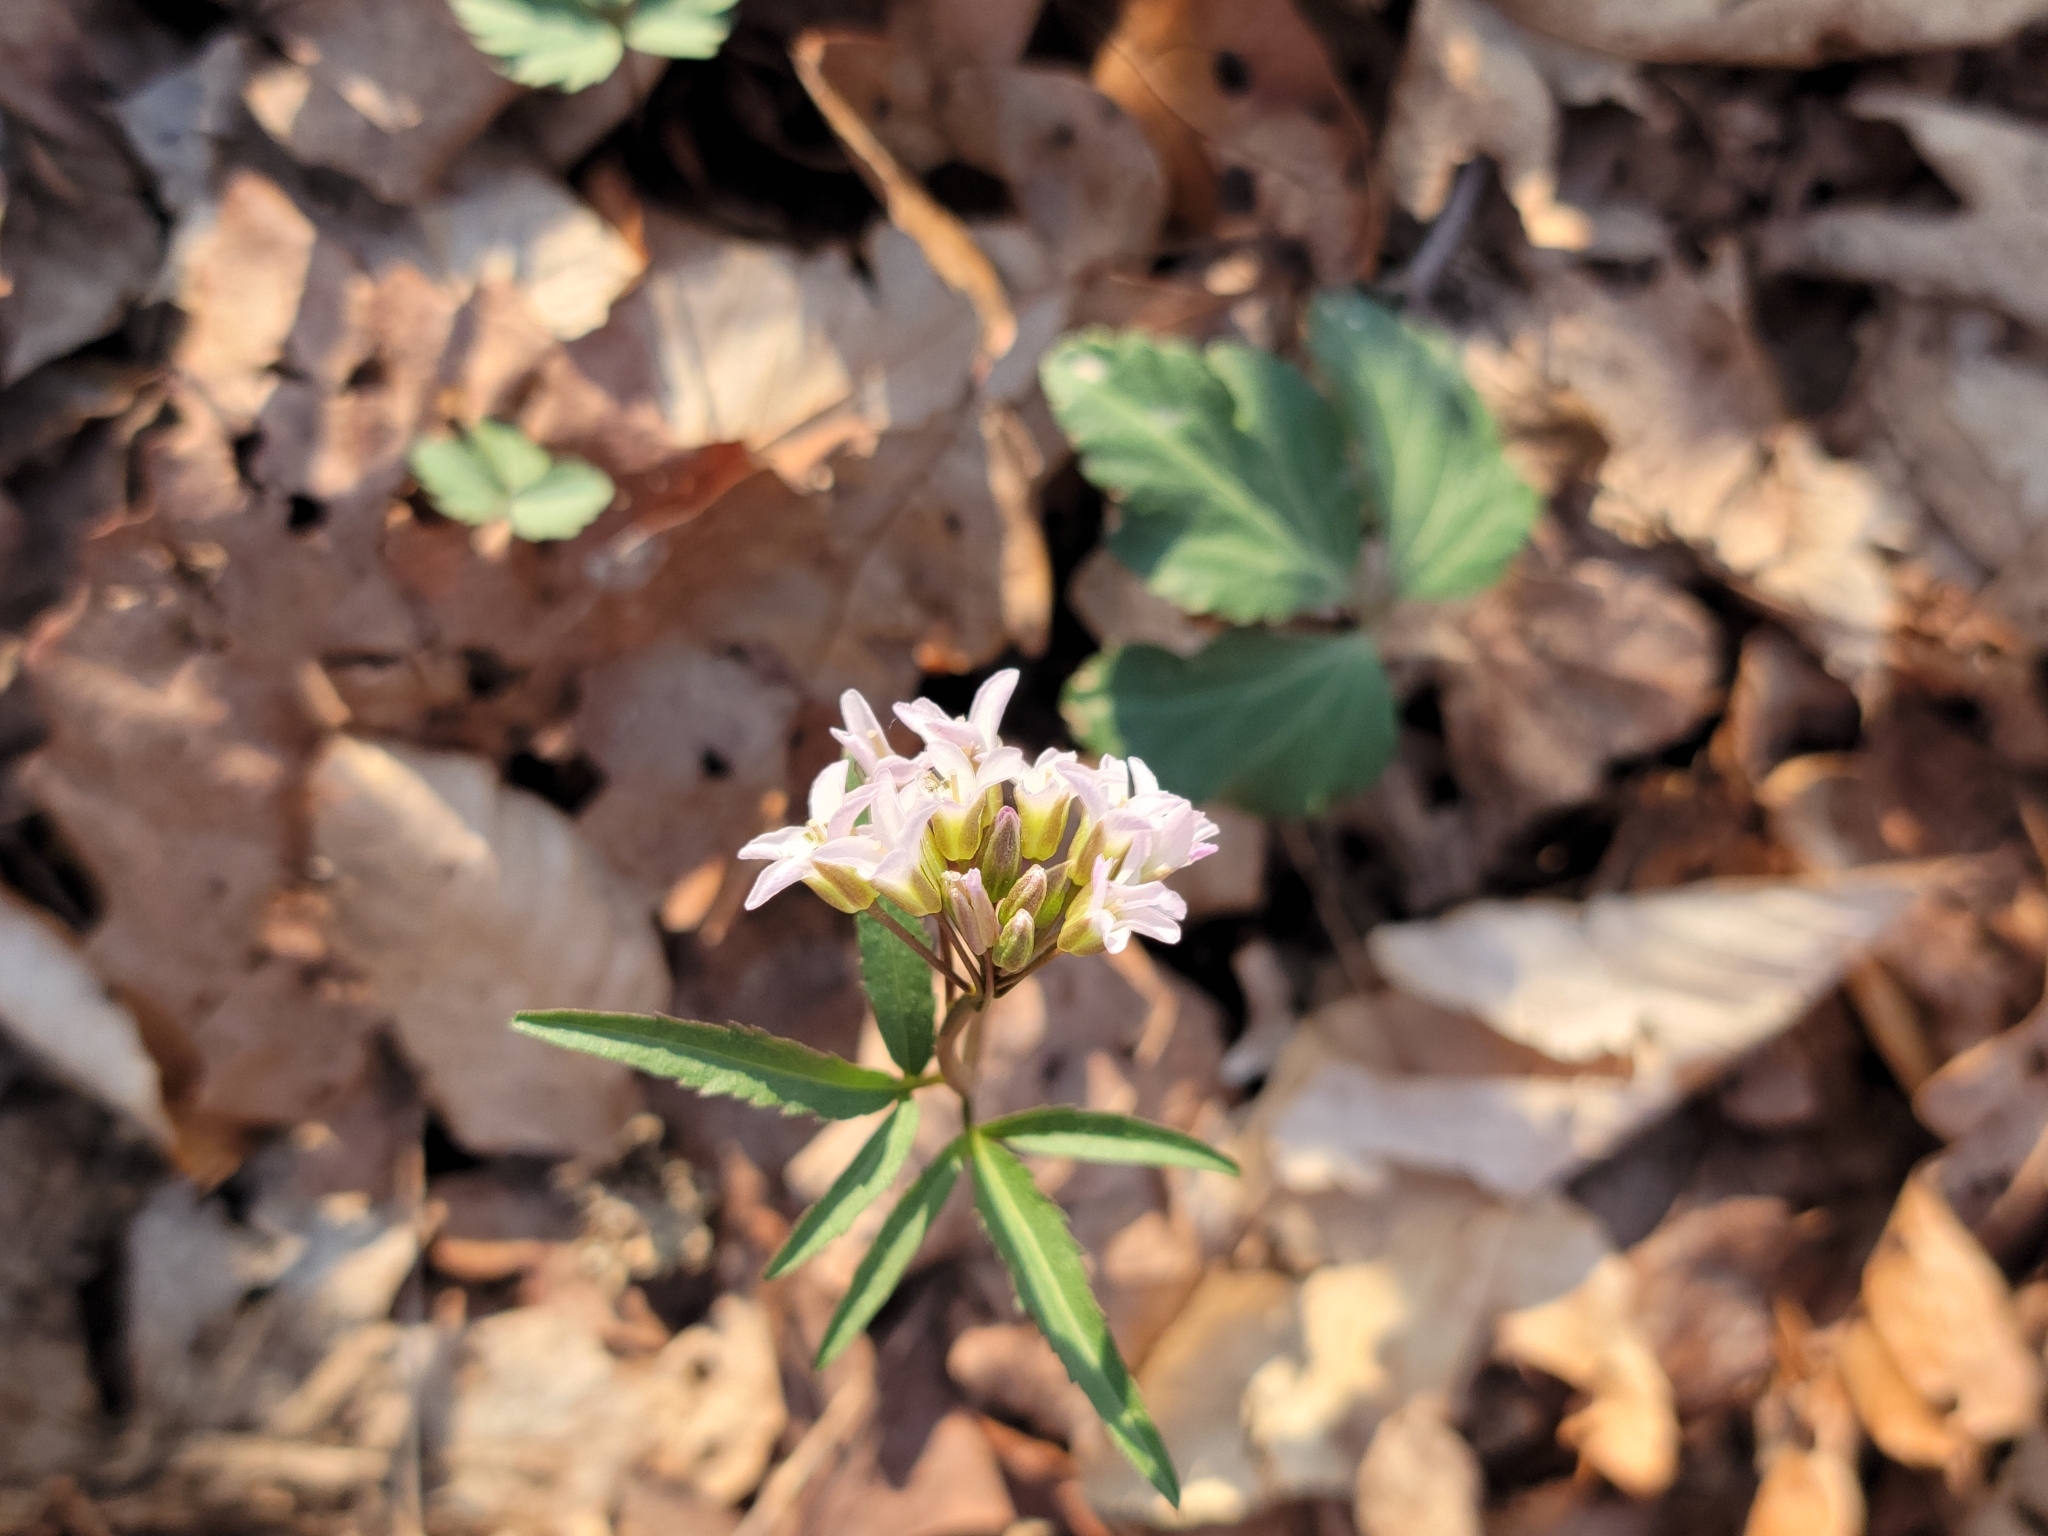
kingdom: Plantae
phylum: Tracheophyta
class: Magnoliopsida
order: Brassicales
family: Brassicaceae
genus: Cardamine
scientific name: Cardamine angustata
